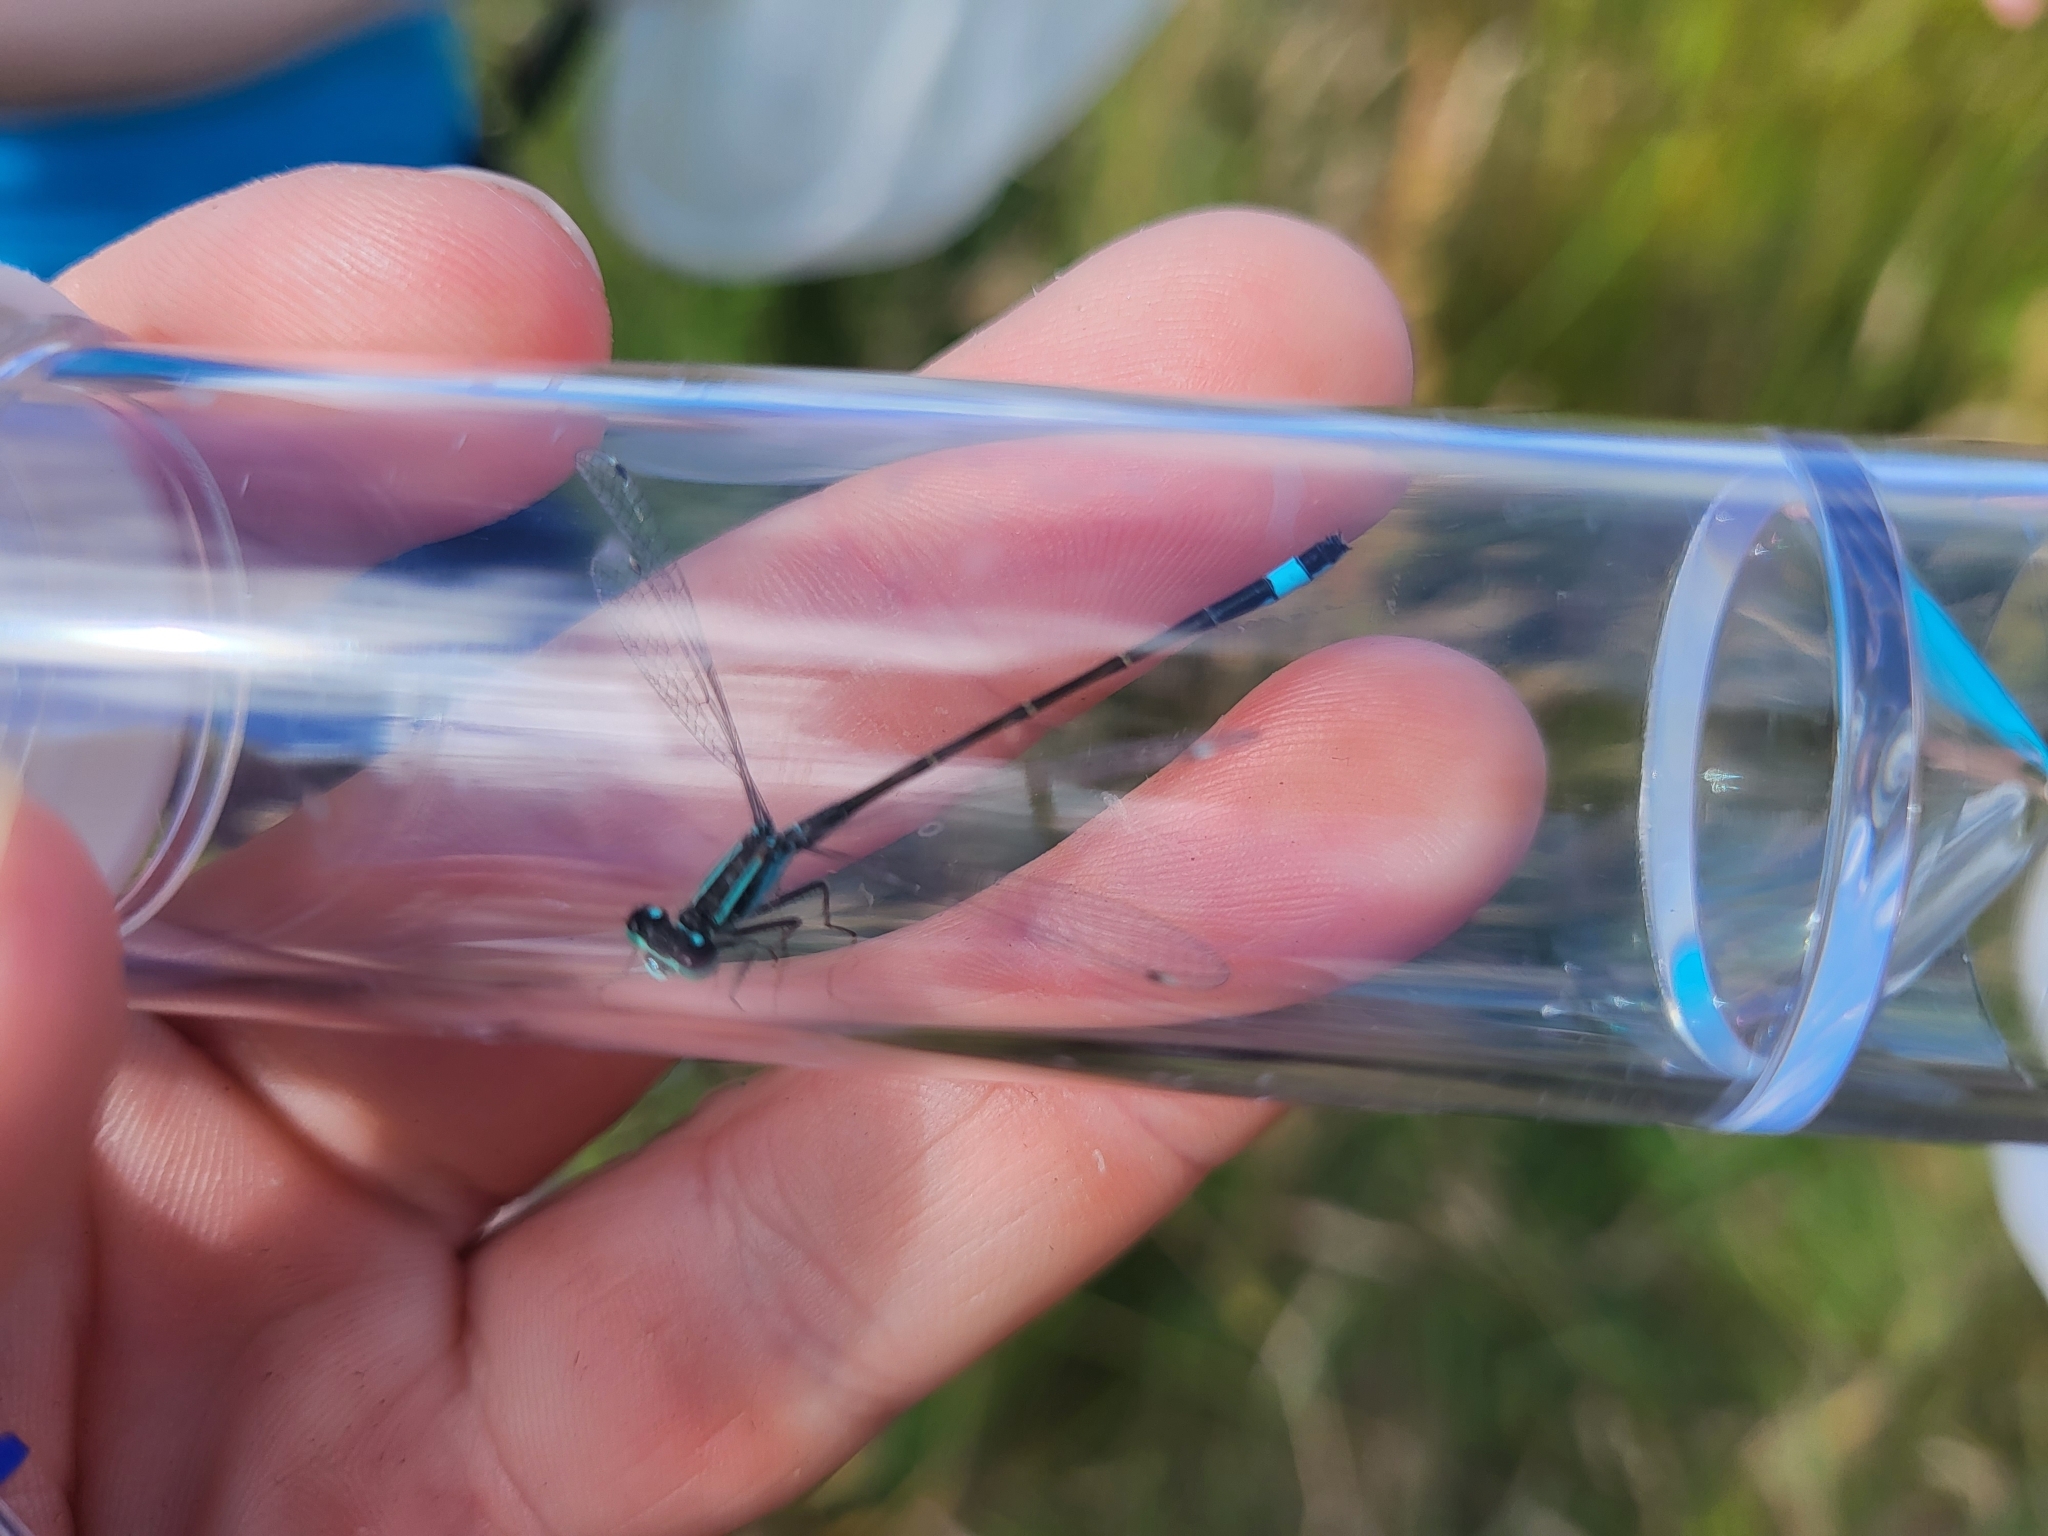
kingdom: Animalia
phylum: Arthropoda
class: Insecta
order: Odonata
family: Coenagrionidae
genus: Ischnura
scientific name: Ischnura elegans
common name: Blue-tailed damselfly
